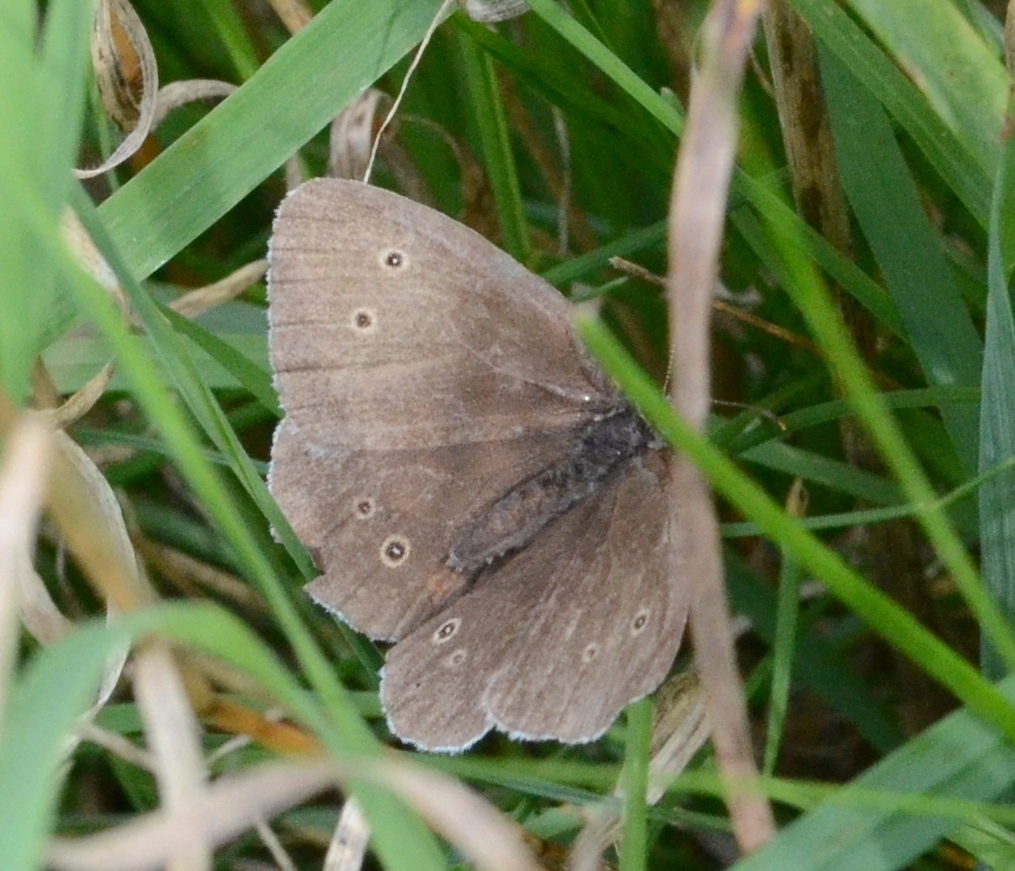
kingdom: Animalia
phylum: Arthropoda
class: Insecta
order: Lepidoptera
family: Nymphalidae
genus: Aphantopus
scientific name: Aphantopus hyperantus
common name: Ringlet
